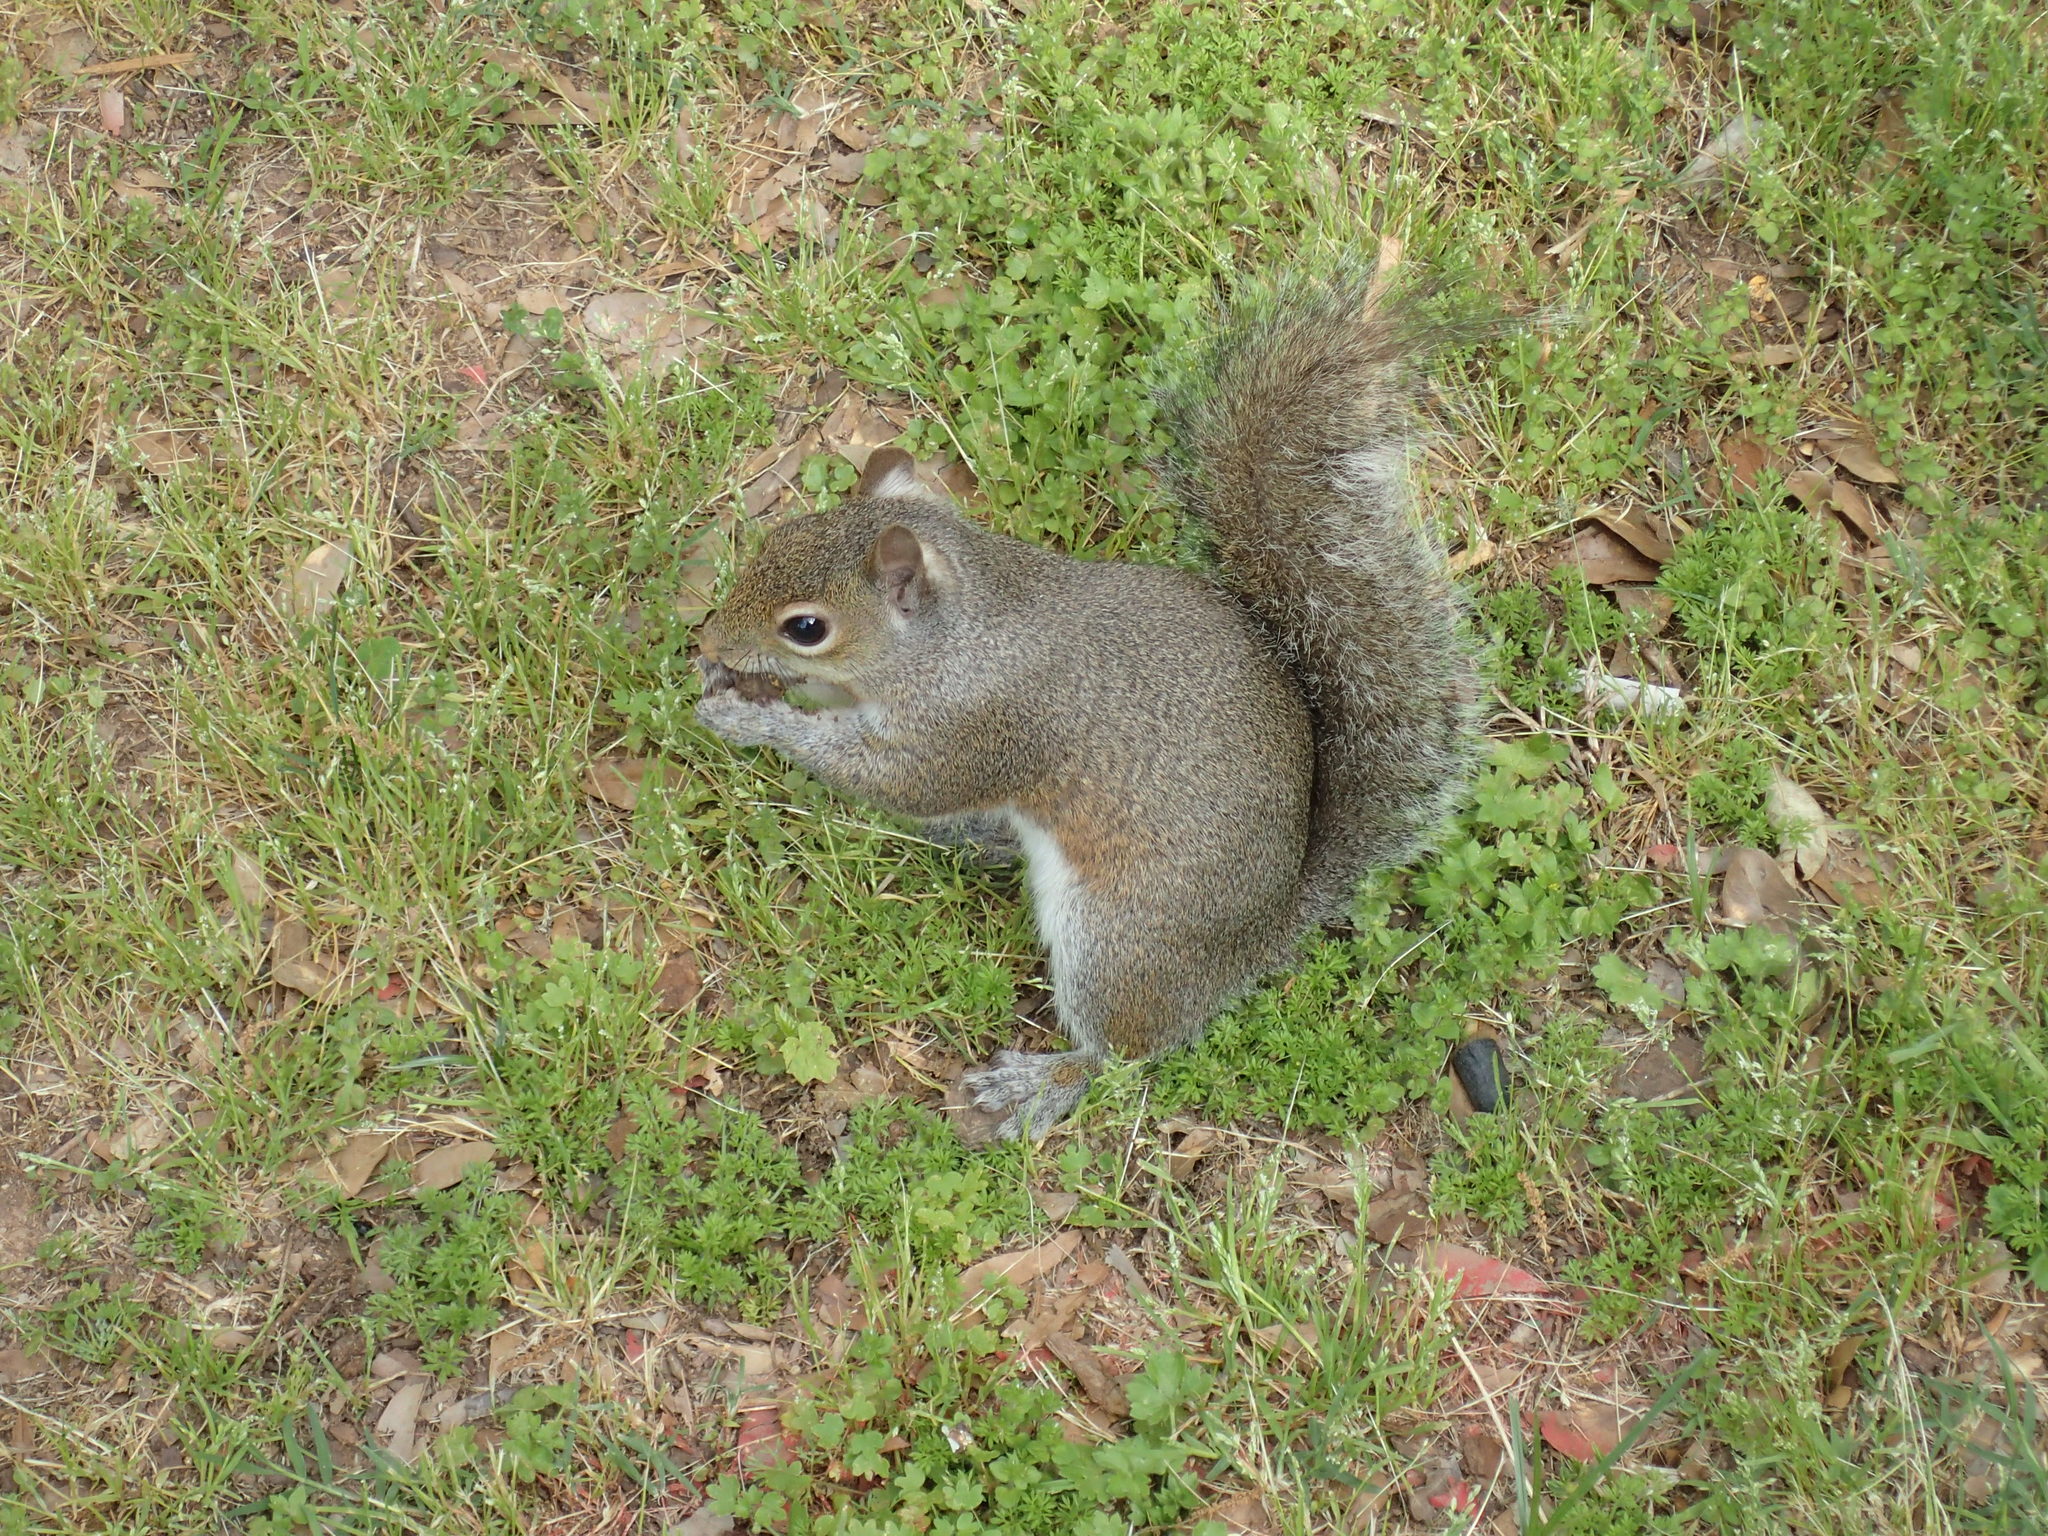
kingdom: Animalia
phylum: Chordata
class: Mammalia
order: Rodentia
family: Sciuridae
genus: Sciurus
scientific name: Sciurus carolinensis
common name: Eastern gray squirrel
